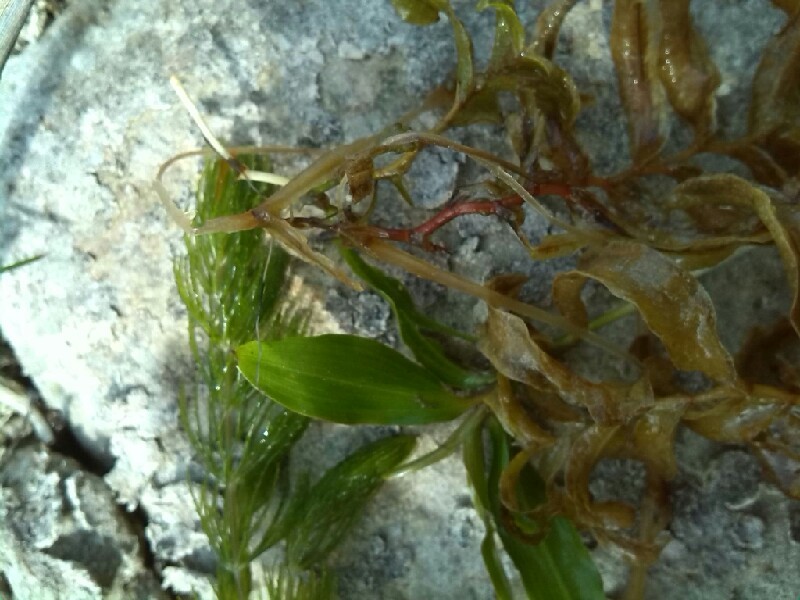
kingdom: Plantae
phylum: Tracheophyta
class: Liliopsida
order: Alismatales
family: Potamogetonaceae
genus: Potamogeton
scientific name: Potamogeton gramineus
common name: Various-leaved pondweed
